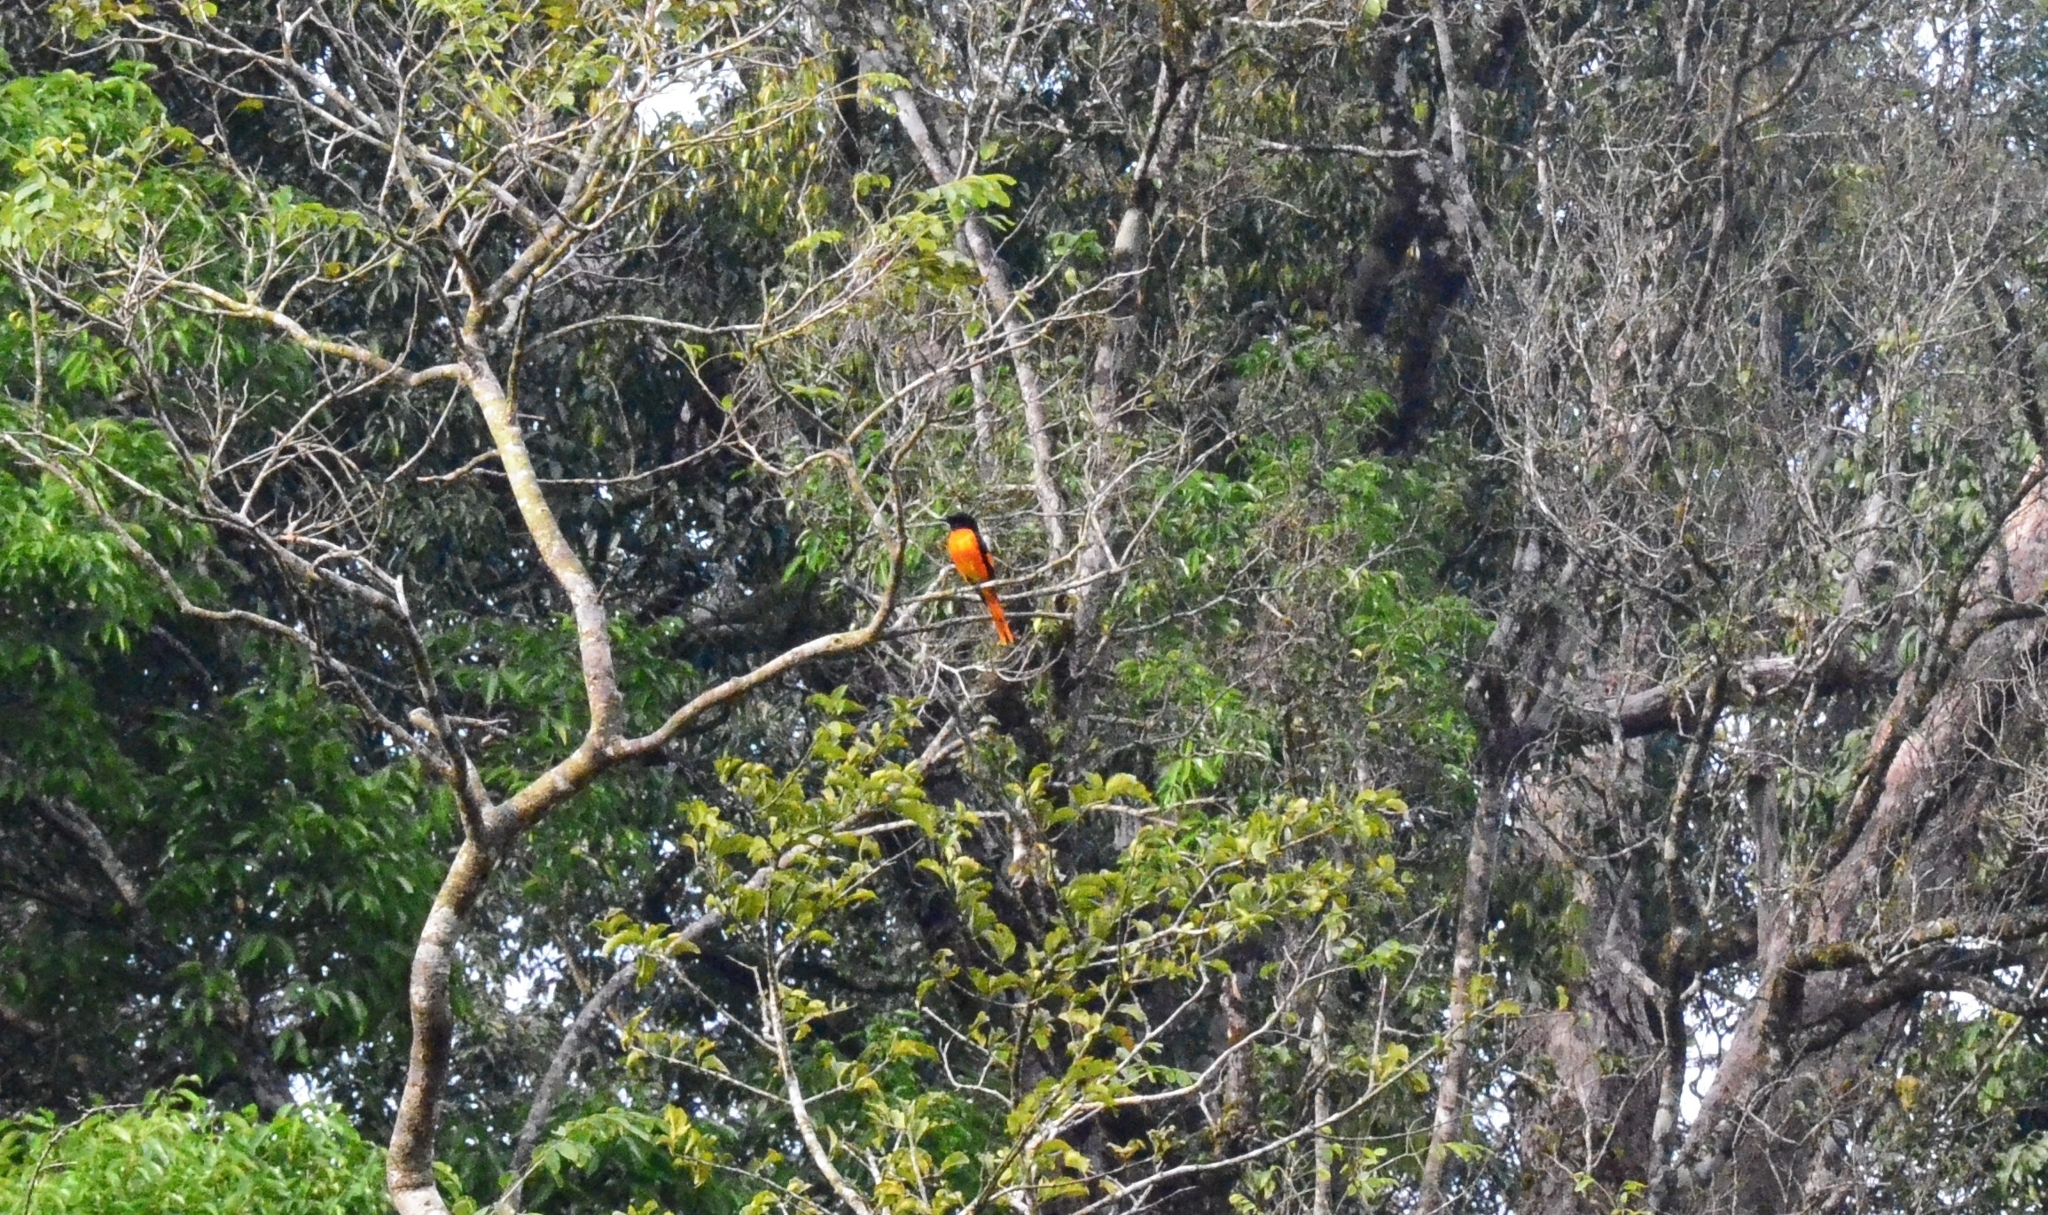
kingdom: Animalia
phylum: Chordata
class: Aves
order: Passeriformes
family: Campephagidae
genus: Pericrocotus
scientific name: Pericrocotus flammeus
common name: Orange minivet
